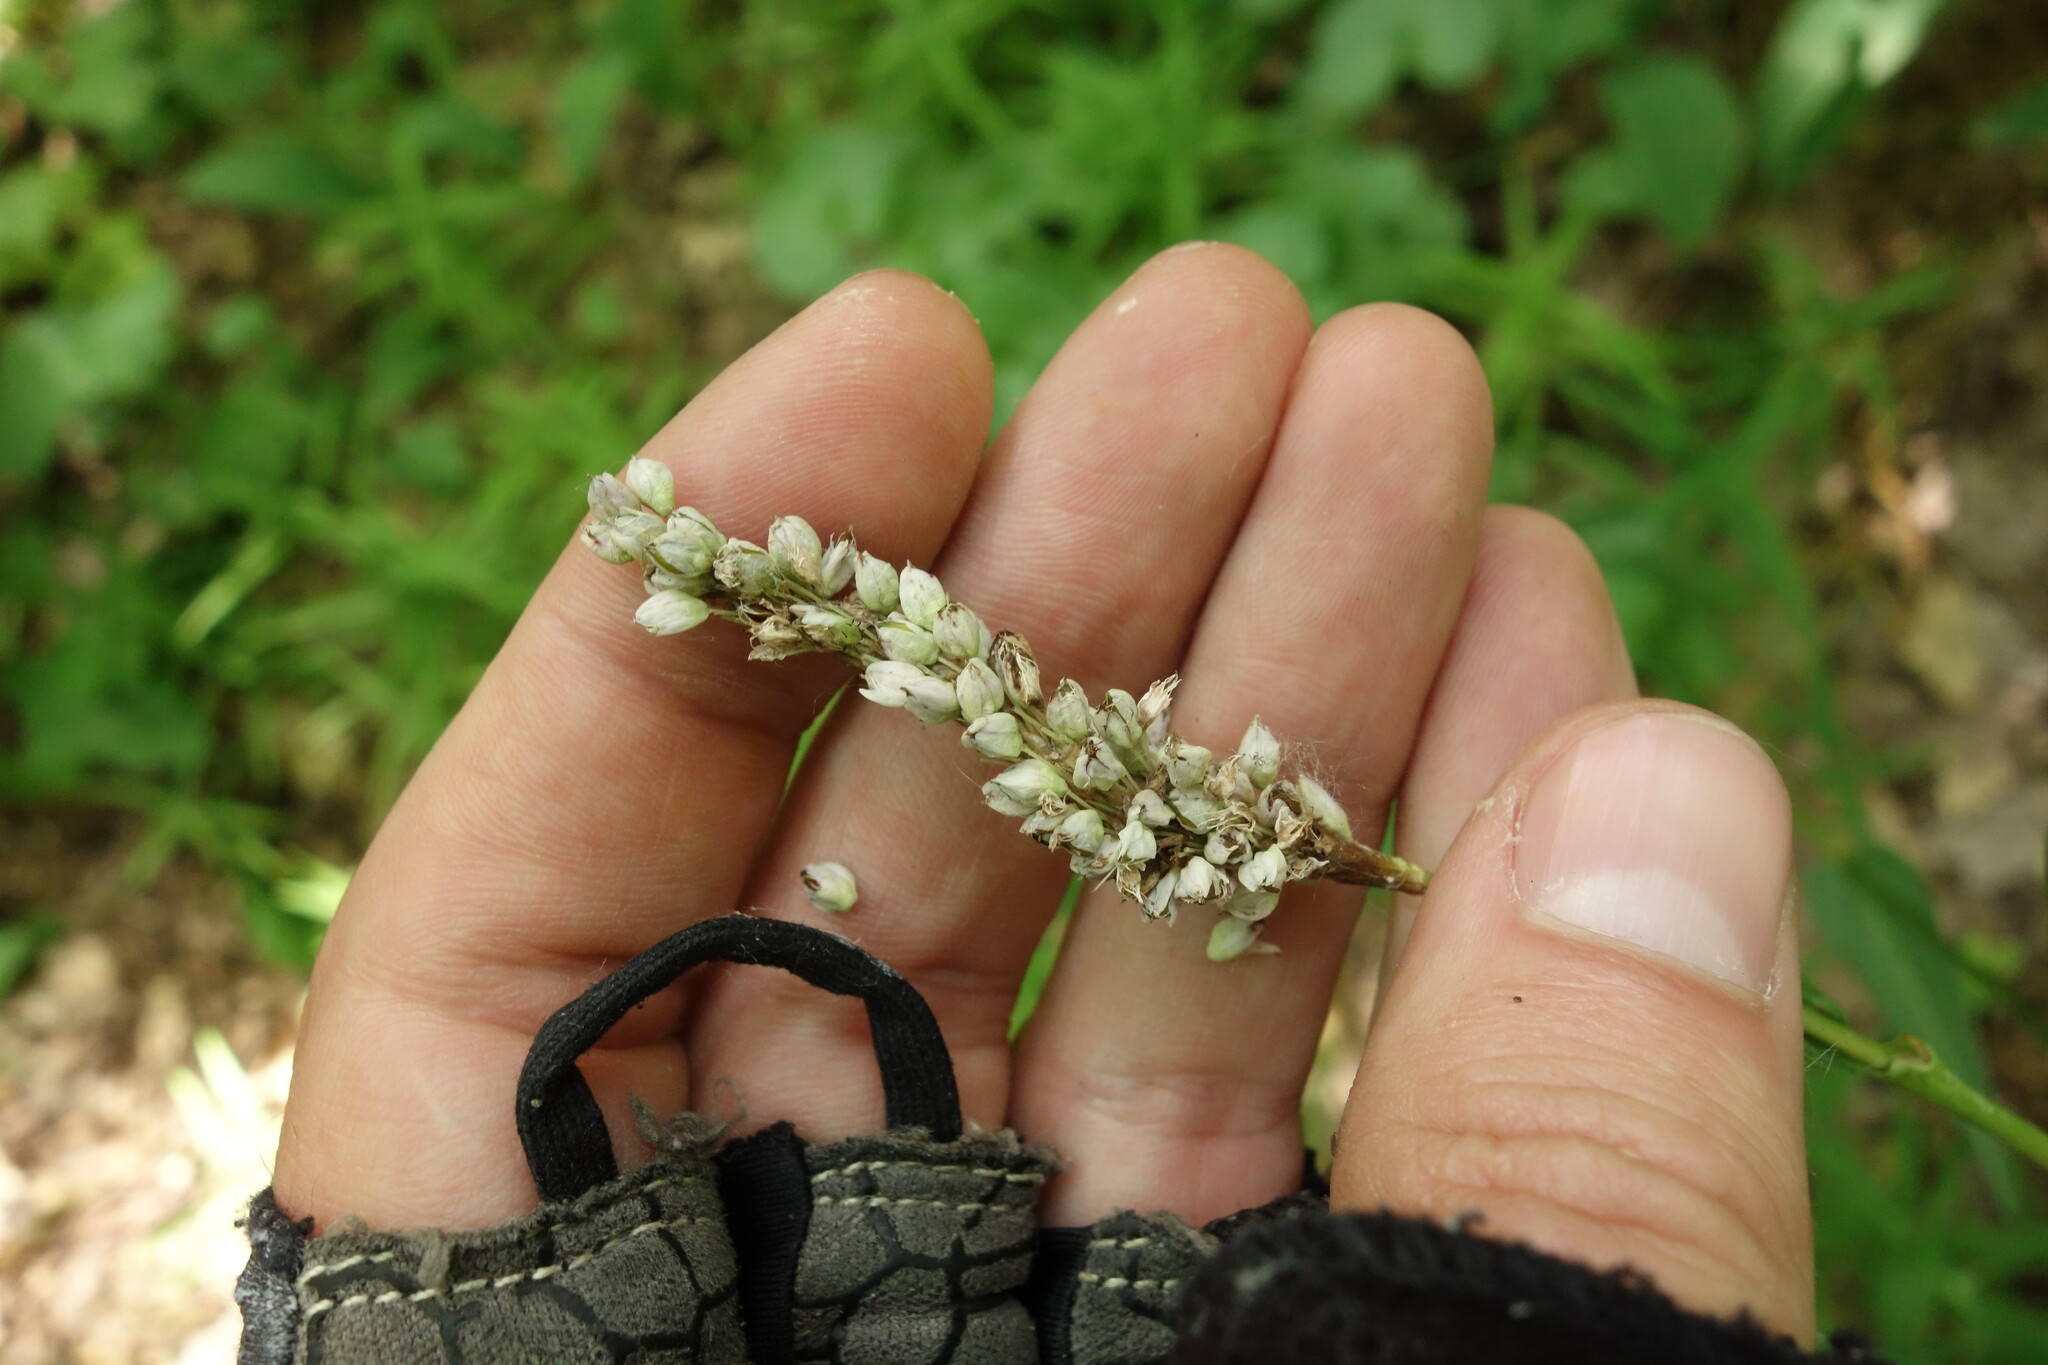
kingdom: Plantae
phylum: Tracheophyta
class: Magnoliopsida
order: Caryophyllales
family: Polygonaceae
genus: Bistorta
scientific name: Bistorta officinalis
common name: Common bistort
